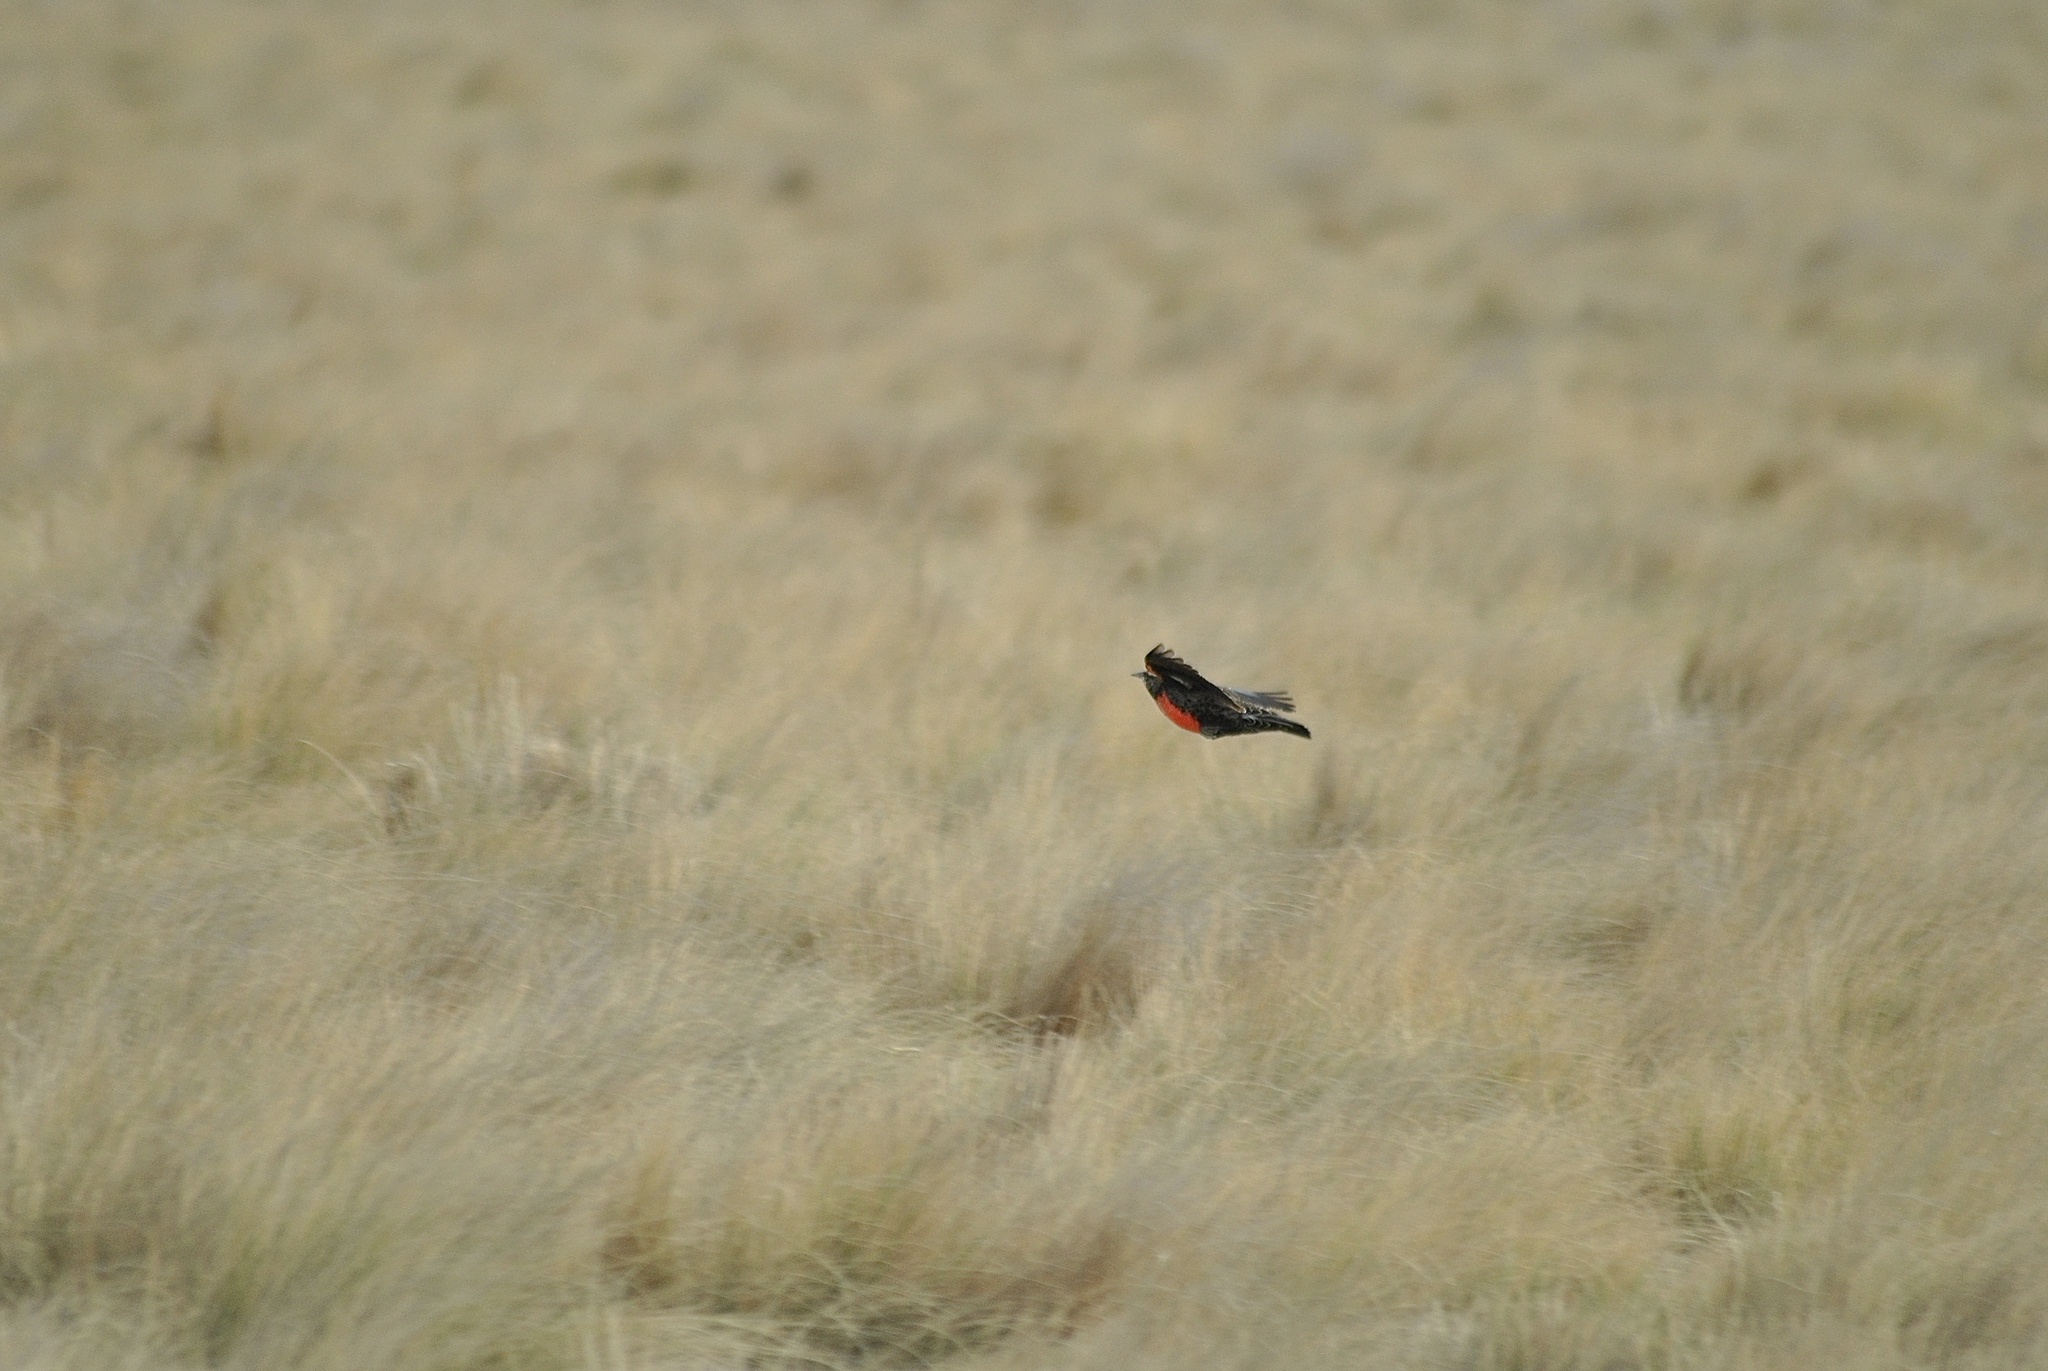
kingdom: Animalia
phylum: Chordata
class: Aves
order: Passeriformes
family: Icteridae
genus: Sturnella
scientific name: Sturnella defilippii
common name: Pampas meadowlark
